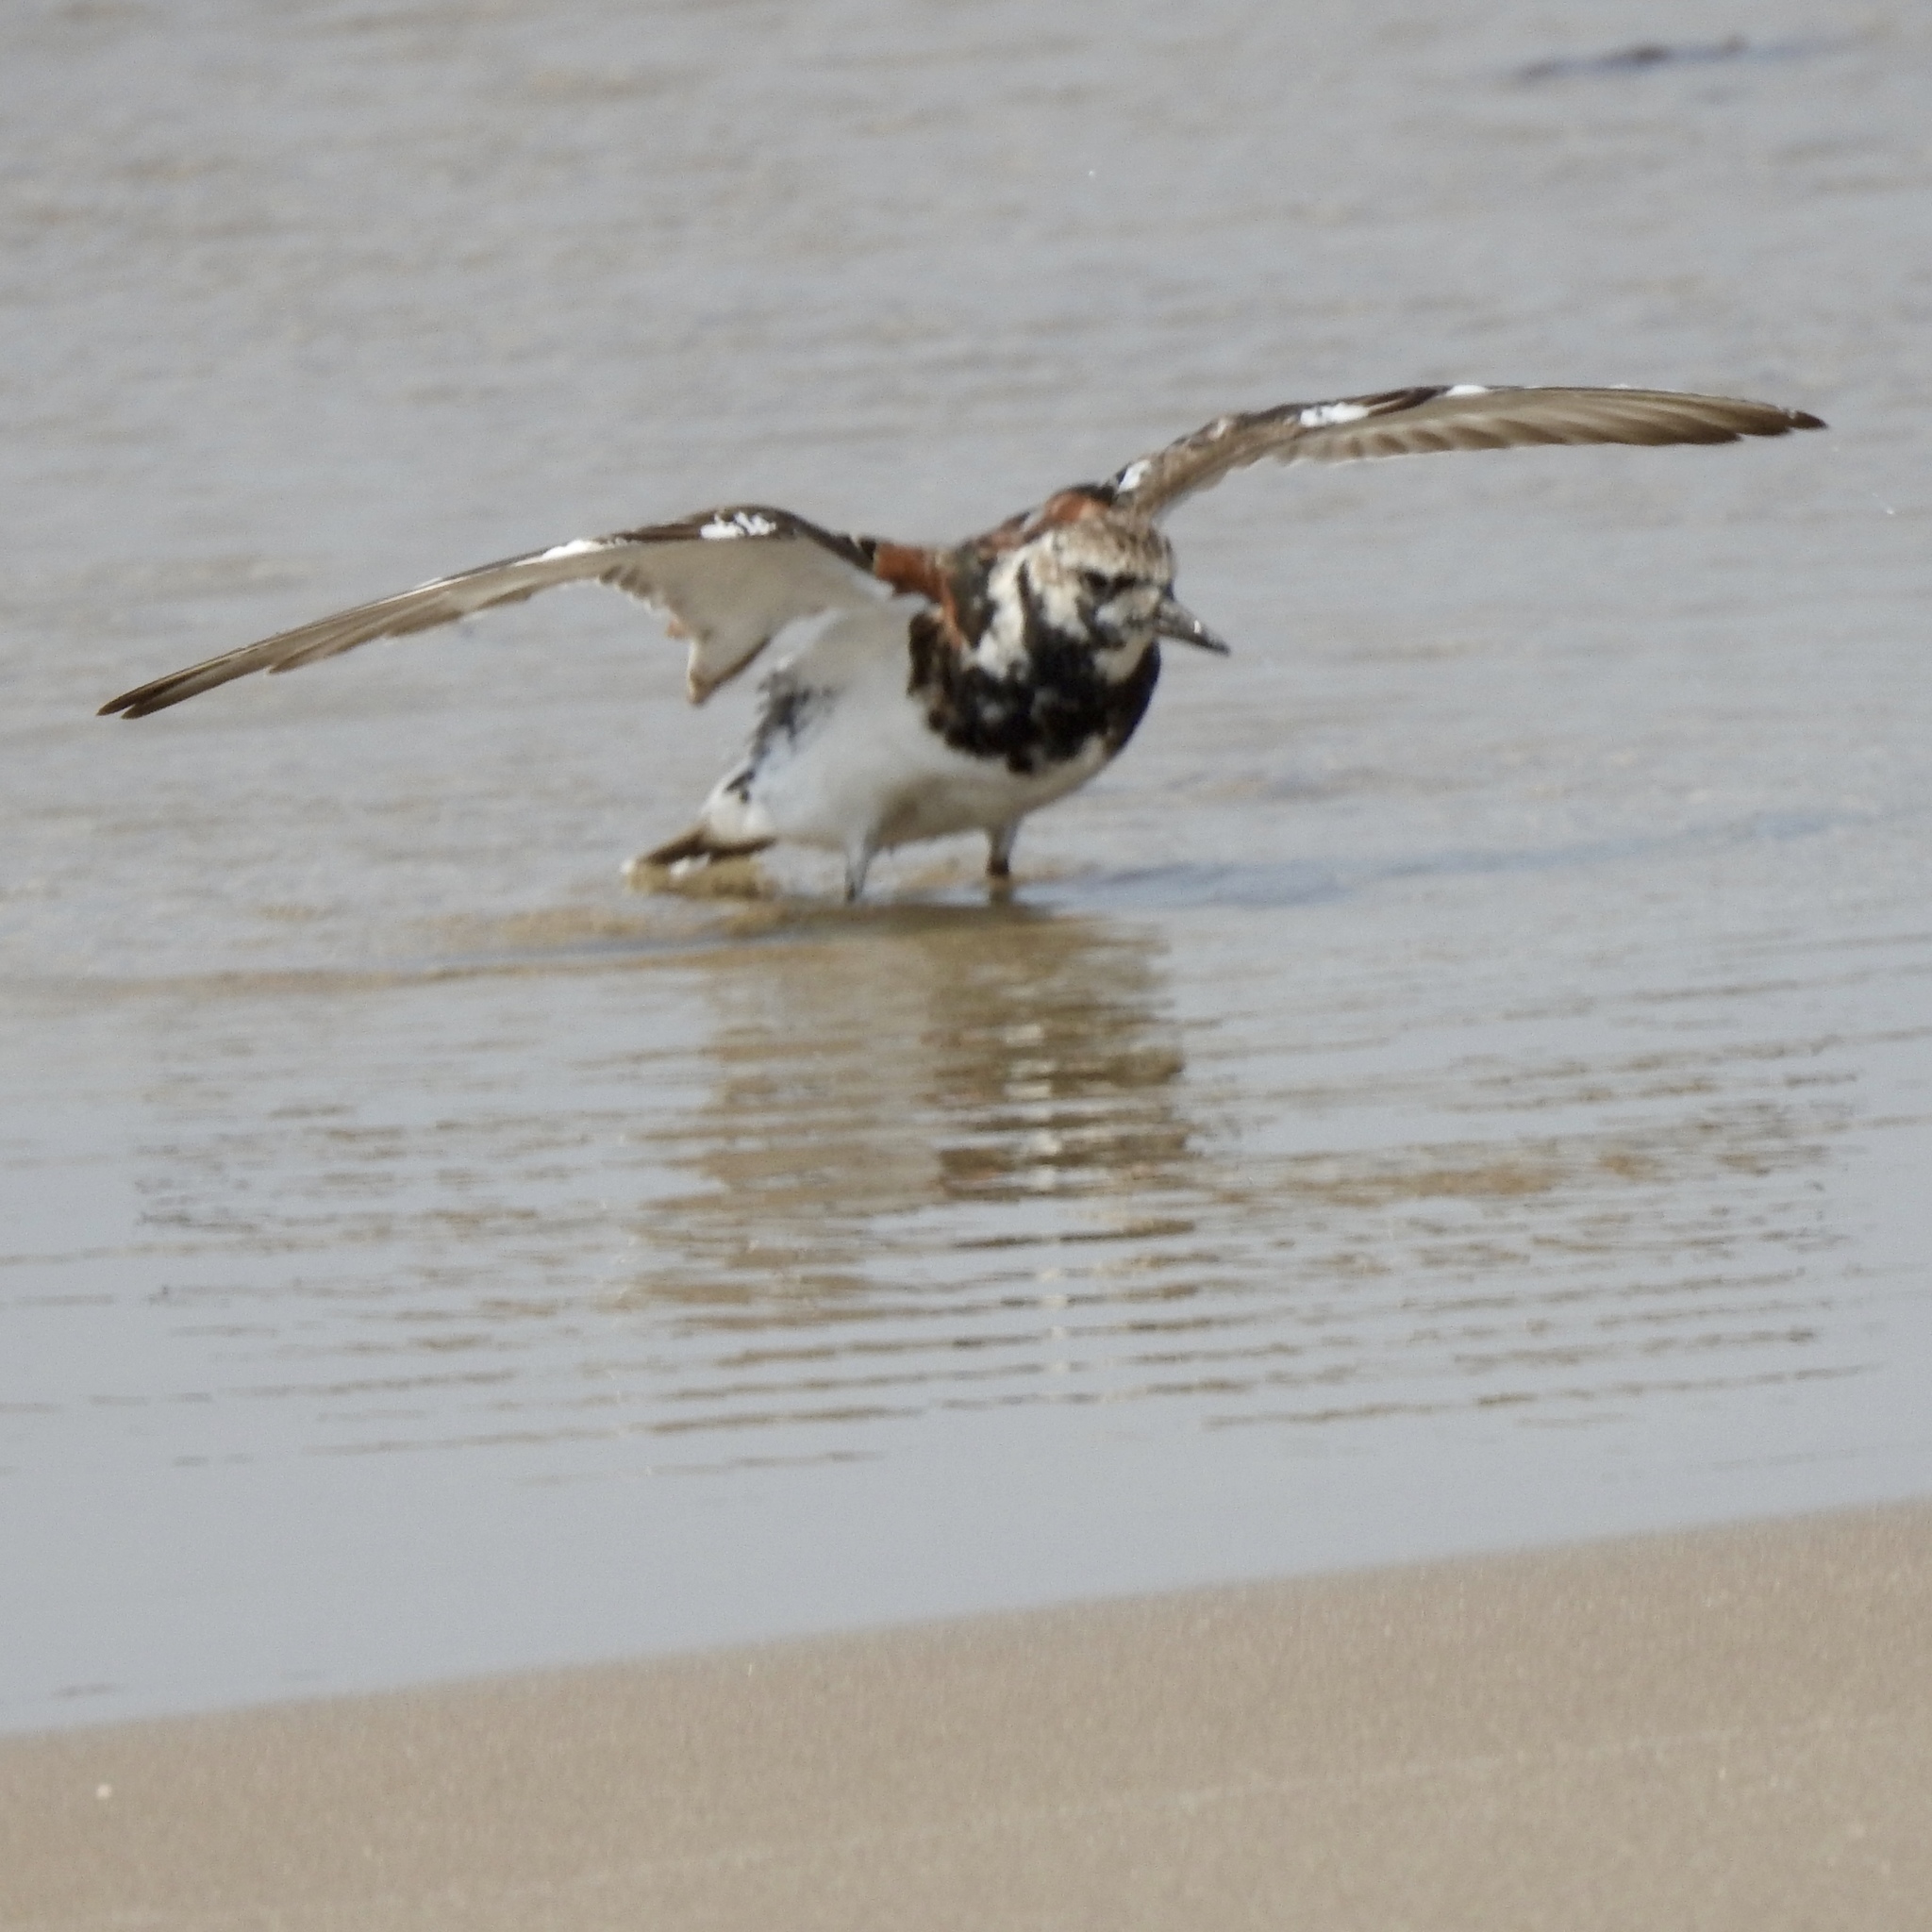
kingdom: Animalia
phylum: Chordata
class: Aves
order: Charadriiformes
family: Scolopacidae
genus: Arenaria
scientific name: Arenaria interpres
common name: Ruddy turnstone
